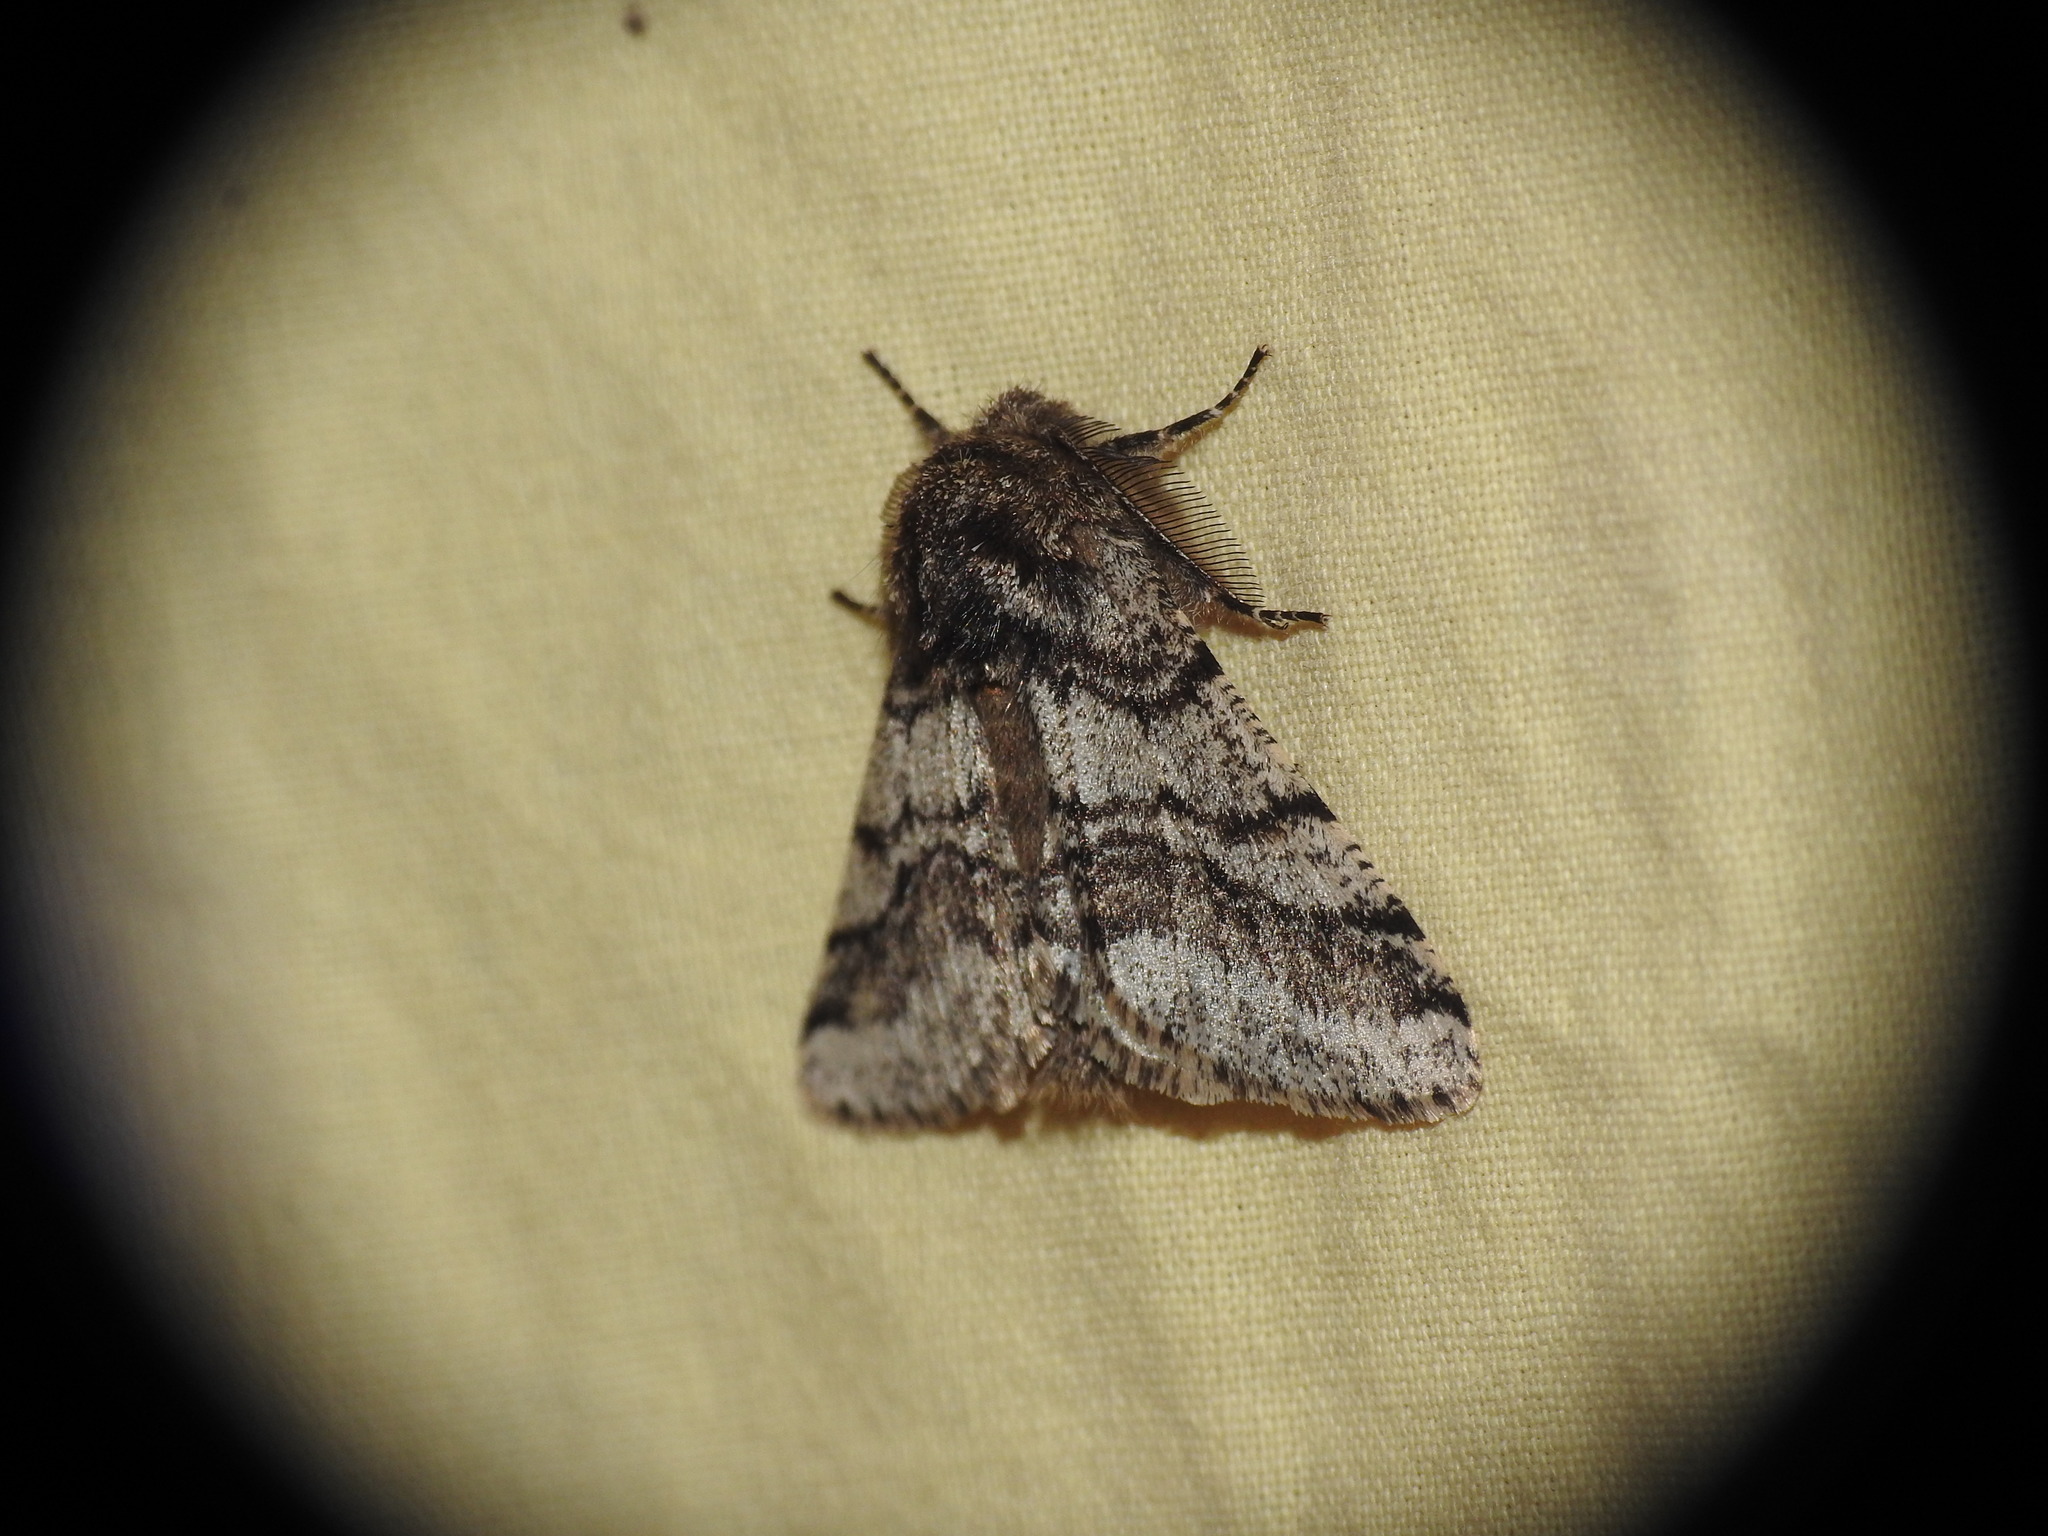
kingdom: Animalia
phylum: Arthropoda
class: Insecta
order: Lepidoptera
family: Geometridae
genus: Lycia
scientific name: Lycia hirtaria
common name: Brindled beauty
